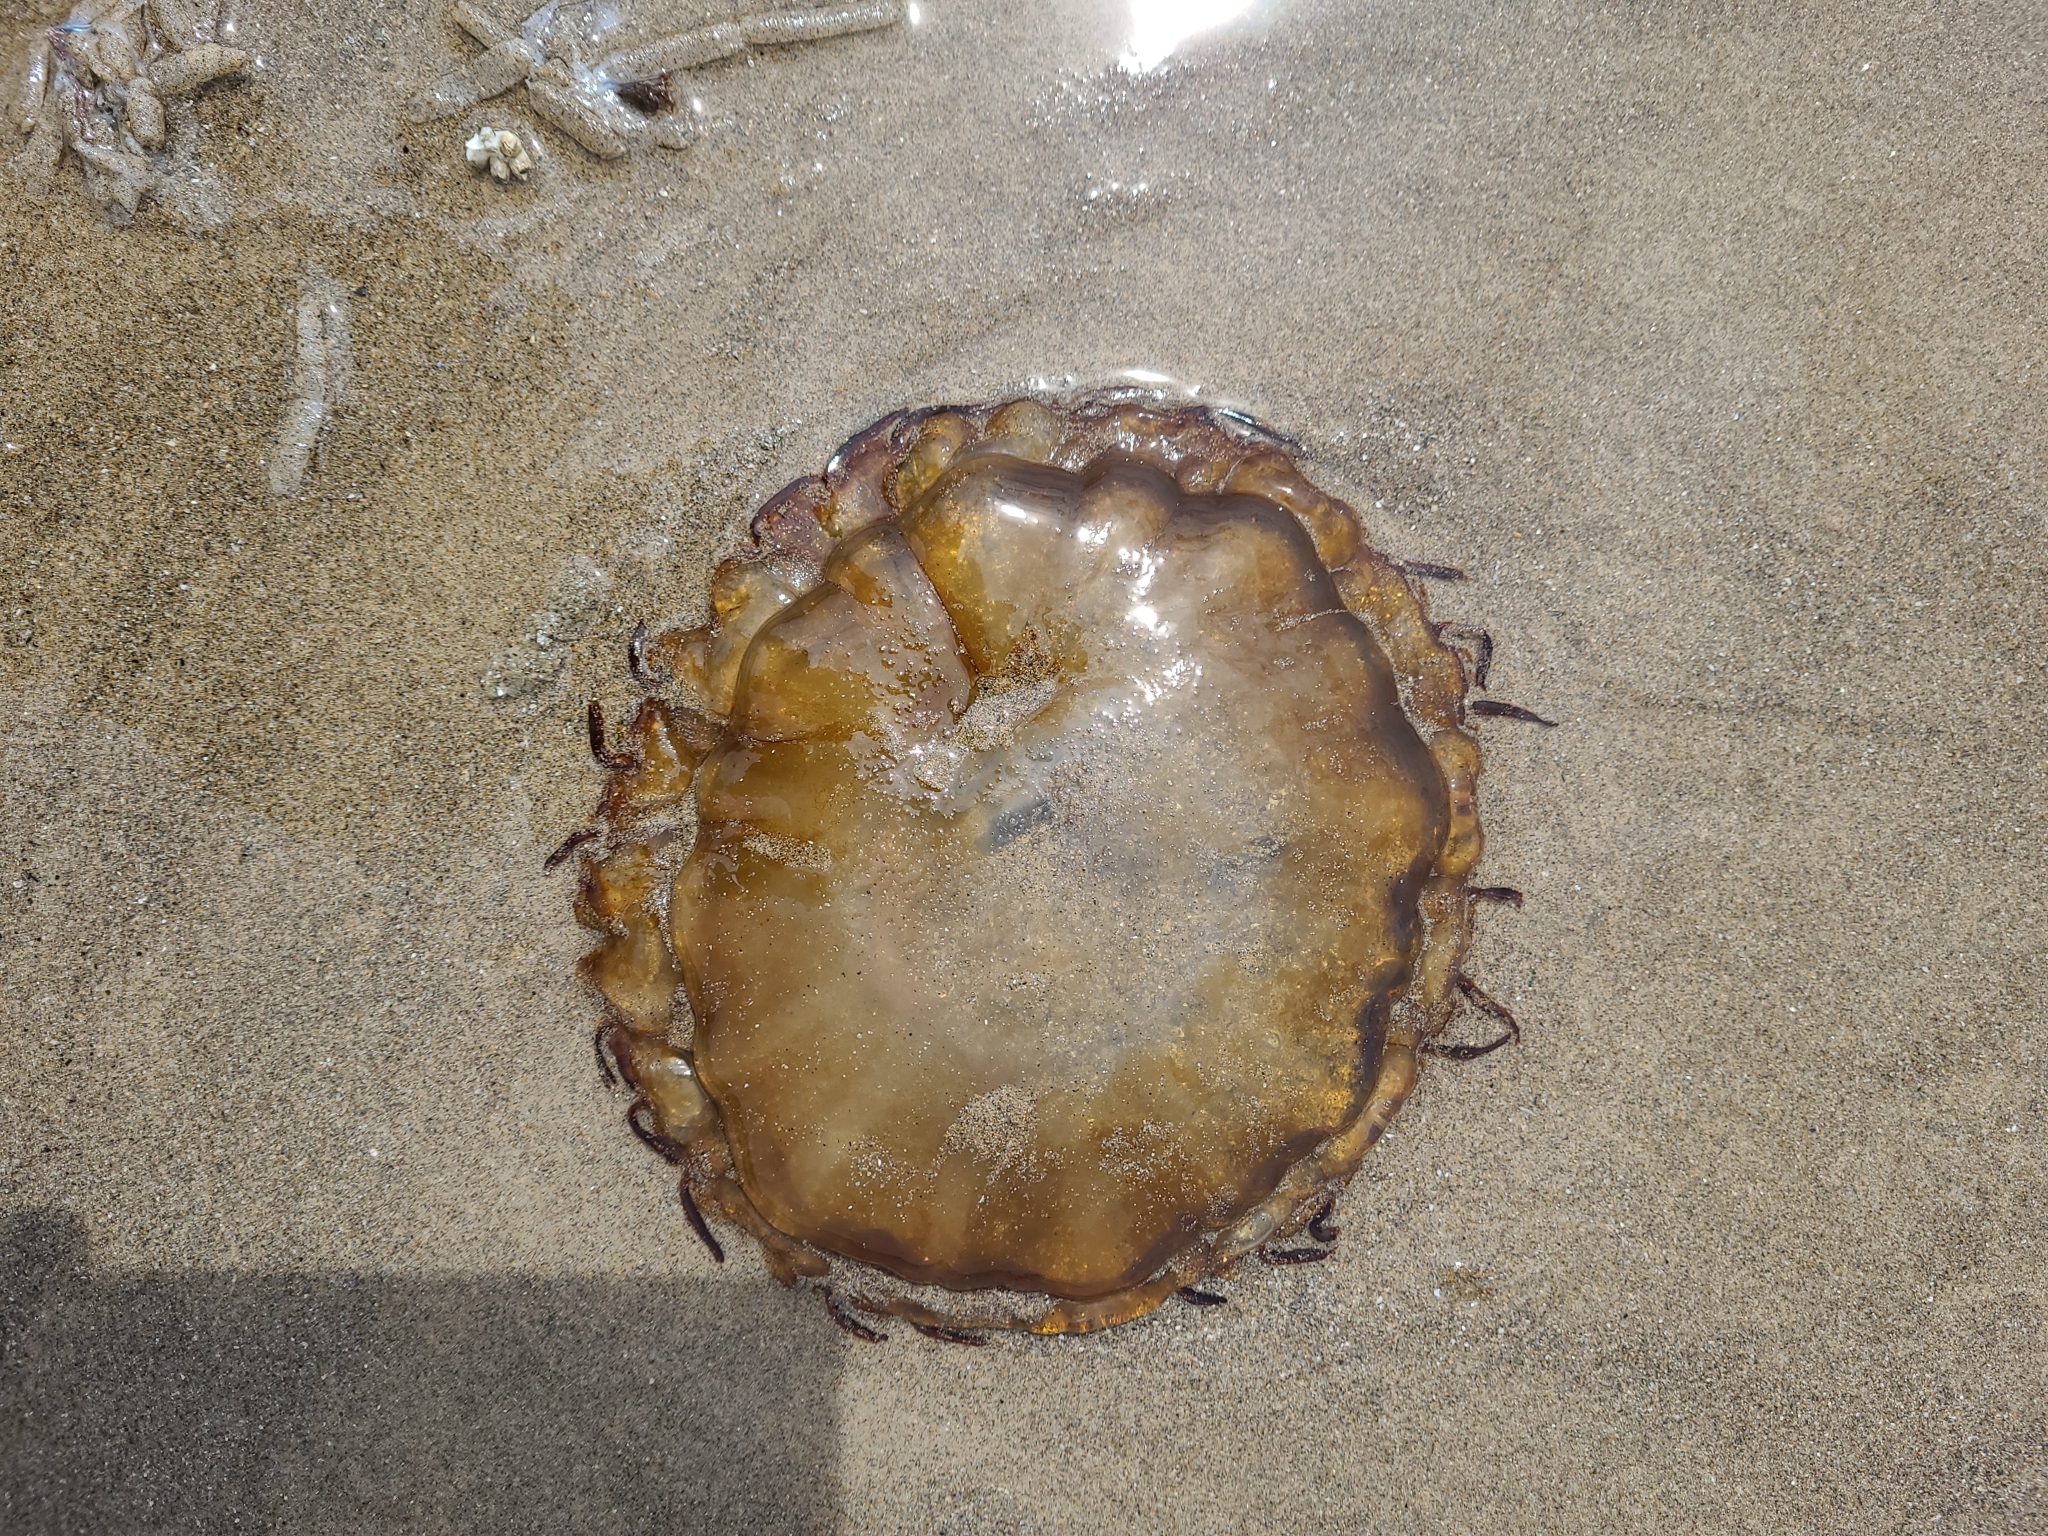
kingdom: Animalia
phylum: Cnidaria
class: Scyphozoa
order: Semaeostomeae
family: Pelagiidae
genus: Chrysaora
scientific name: Chrysaora fuscescens
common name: Sea nettle
